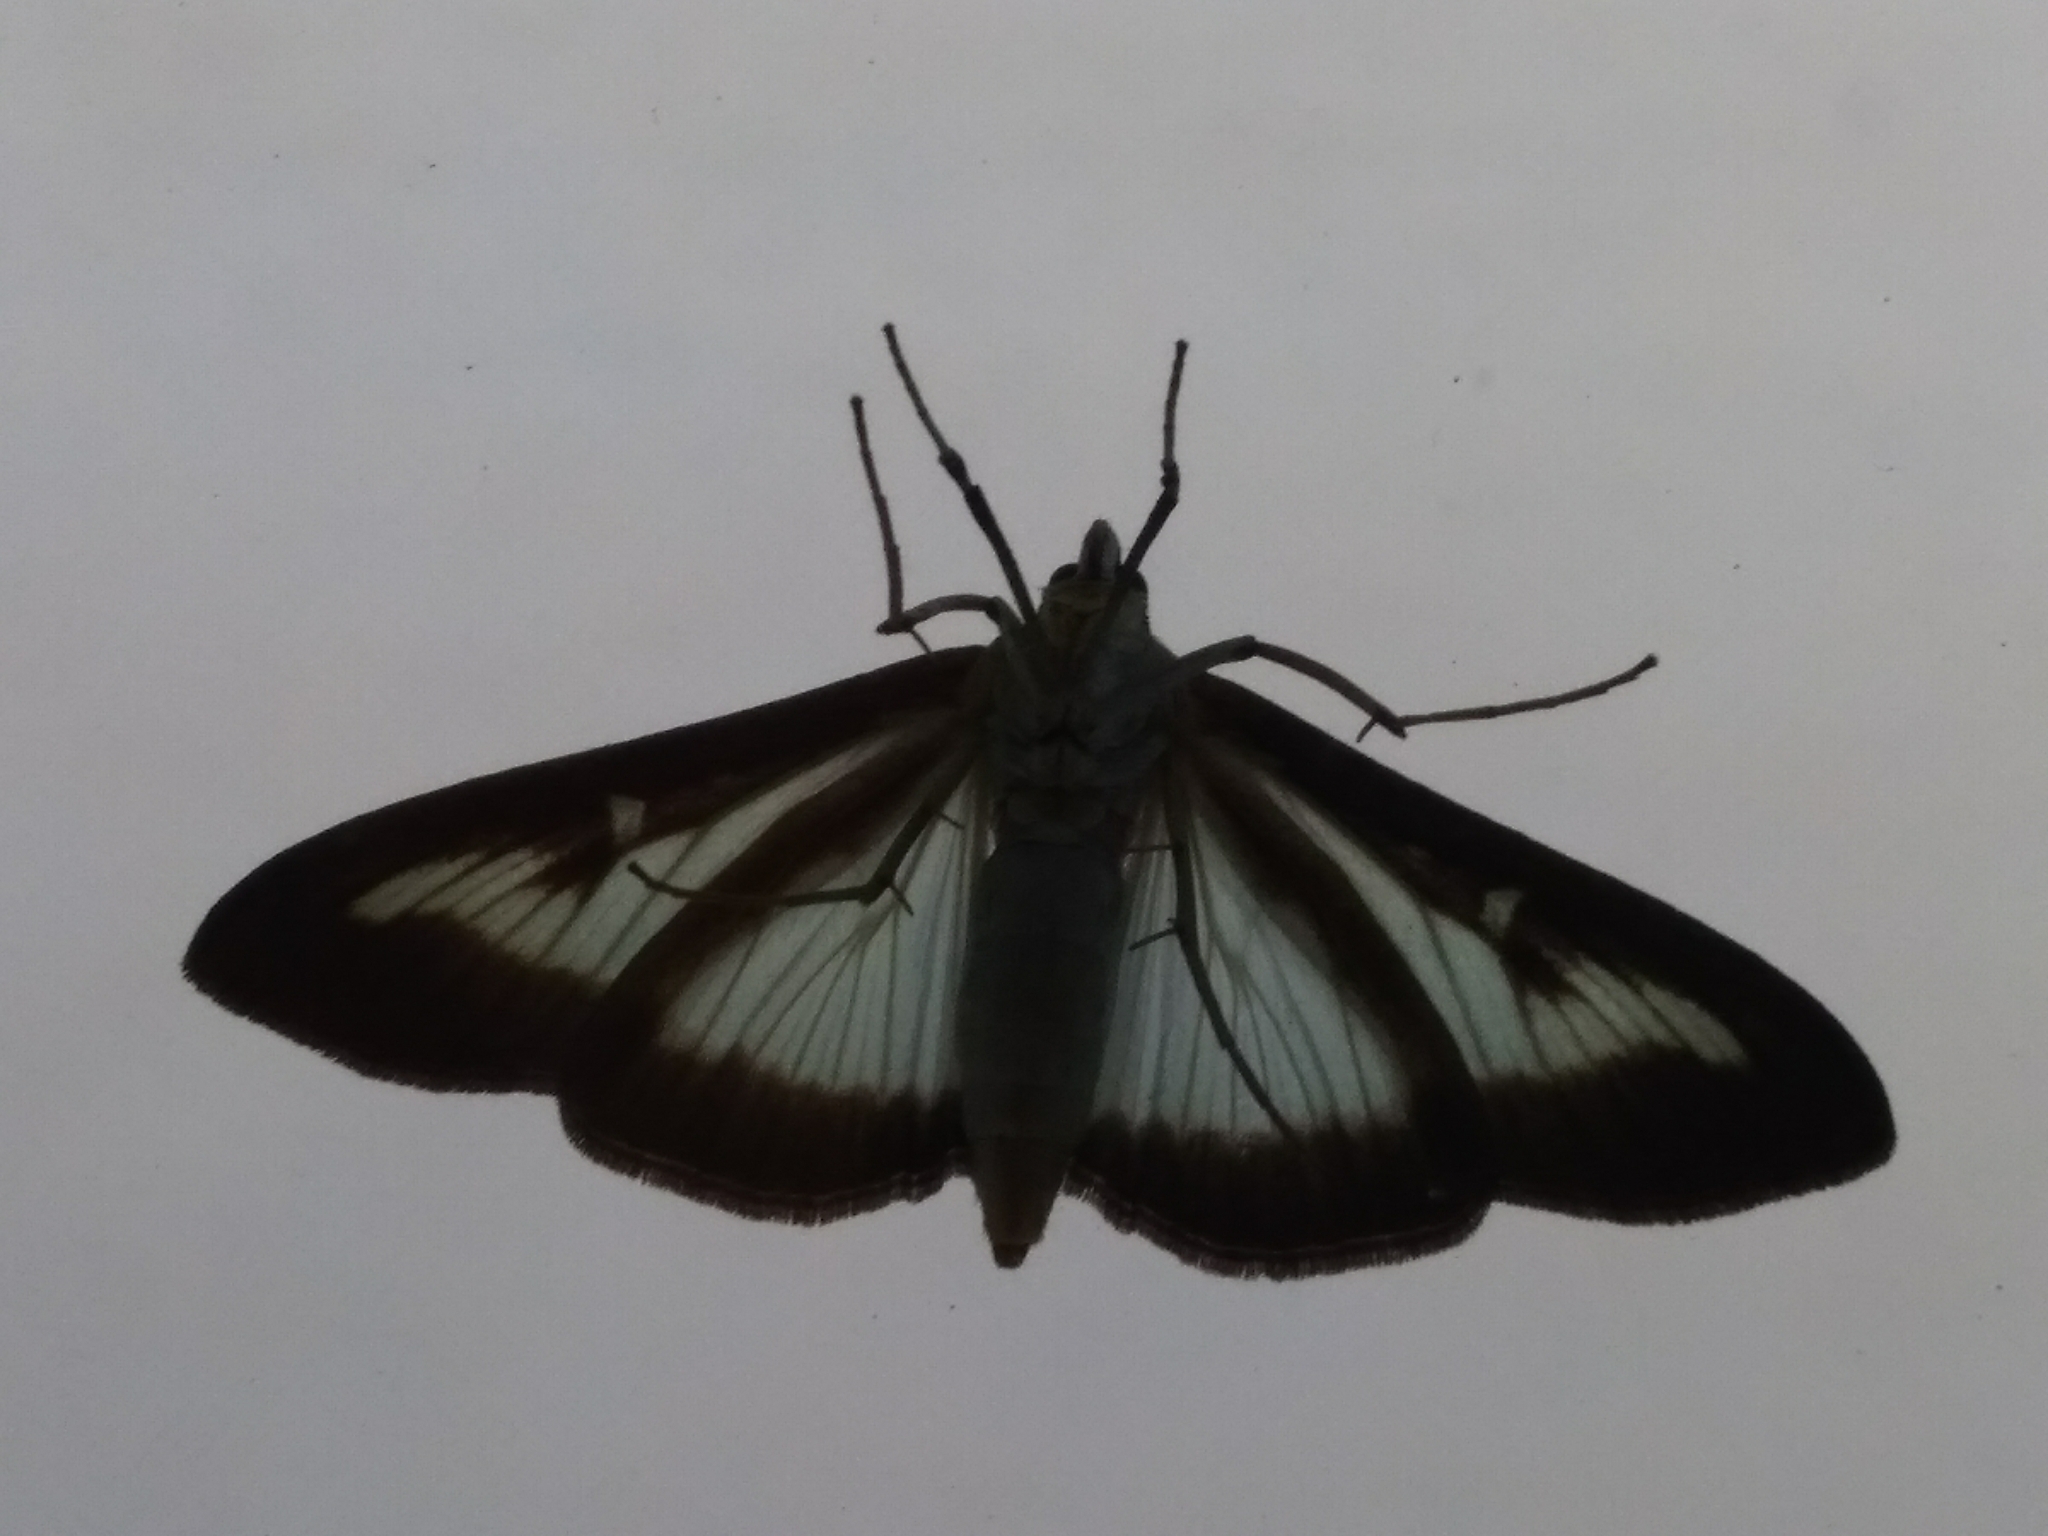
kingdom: Animalia
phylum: Arthropoda
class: Insecta
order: Lepidoptera
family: Crambidae
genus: Cydalima
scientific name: Cydalima perspectalis
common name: Box tree moth
